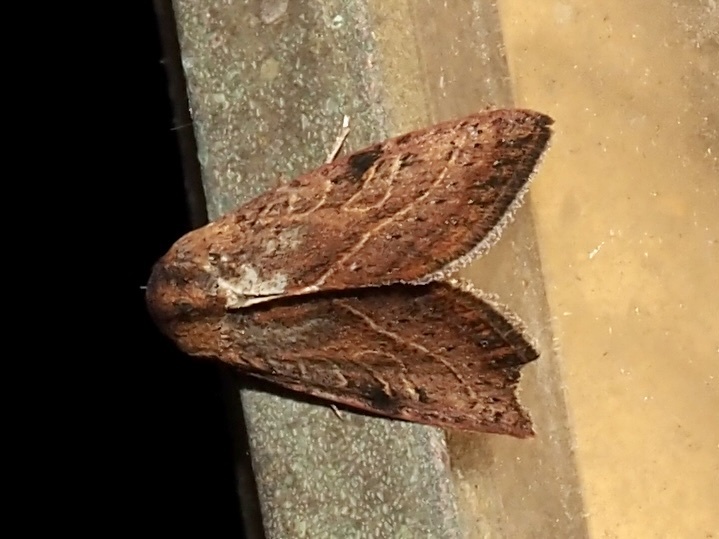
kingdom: Animalia
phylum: Arthropoda
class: Insecta
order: Lepidoptera
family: Noctuidae
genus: Galgula
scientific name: Galgula partita
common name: Wedgeling
